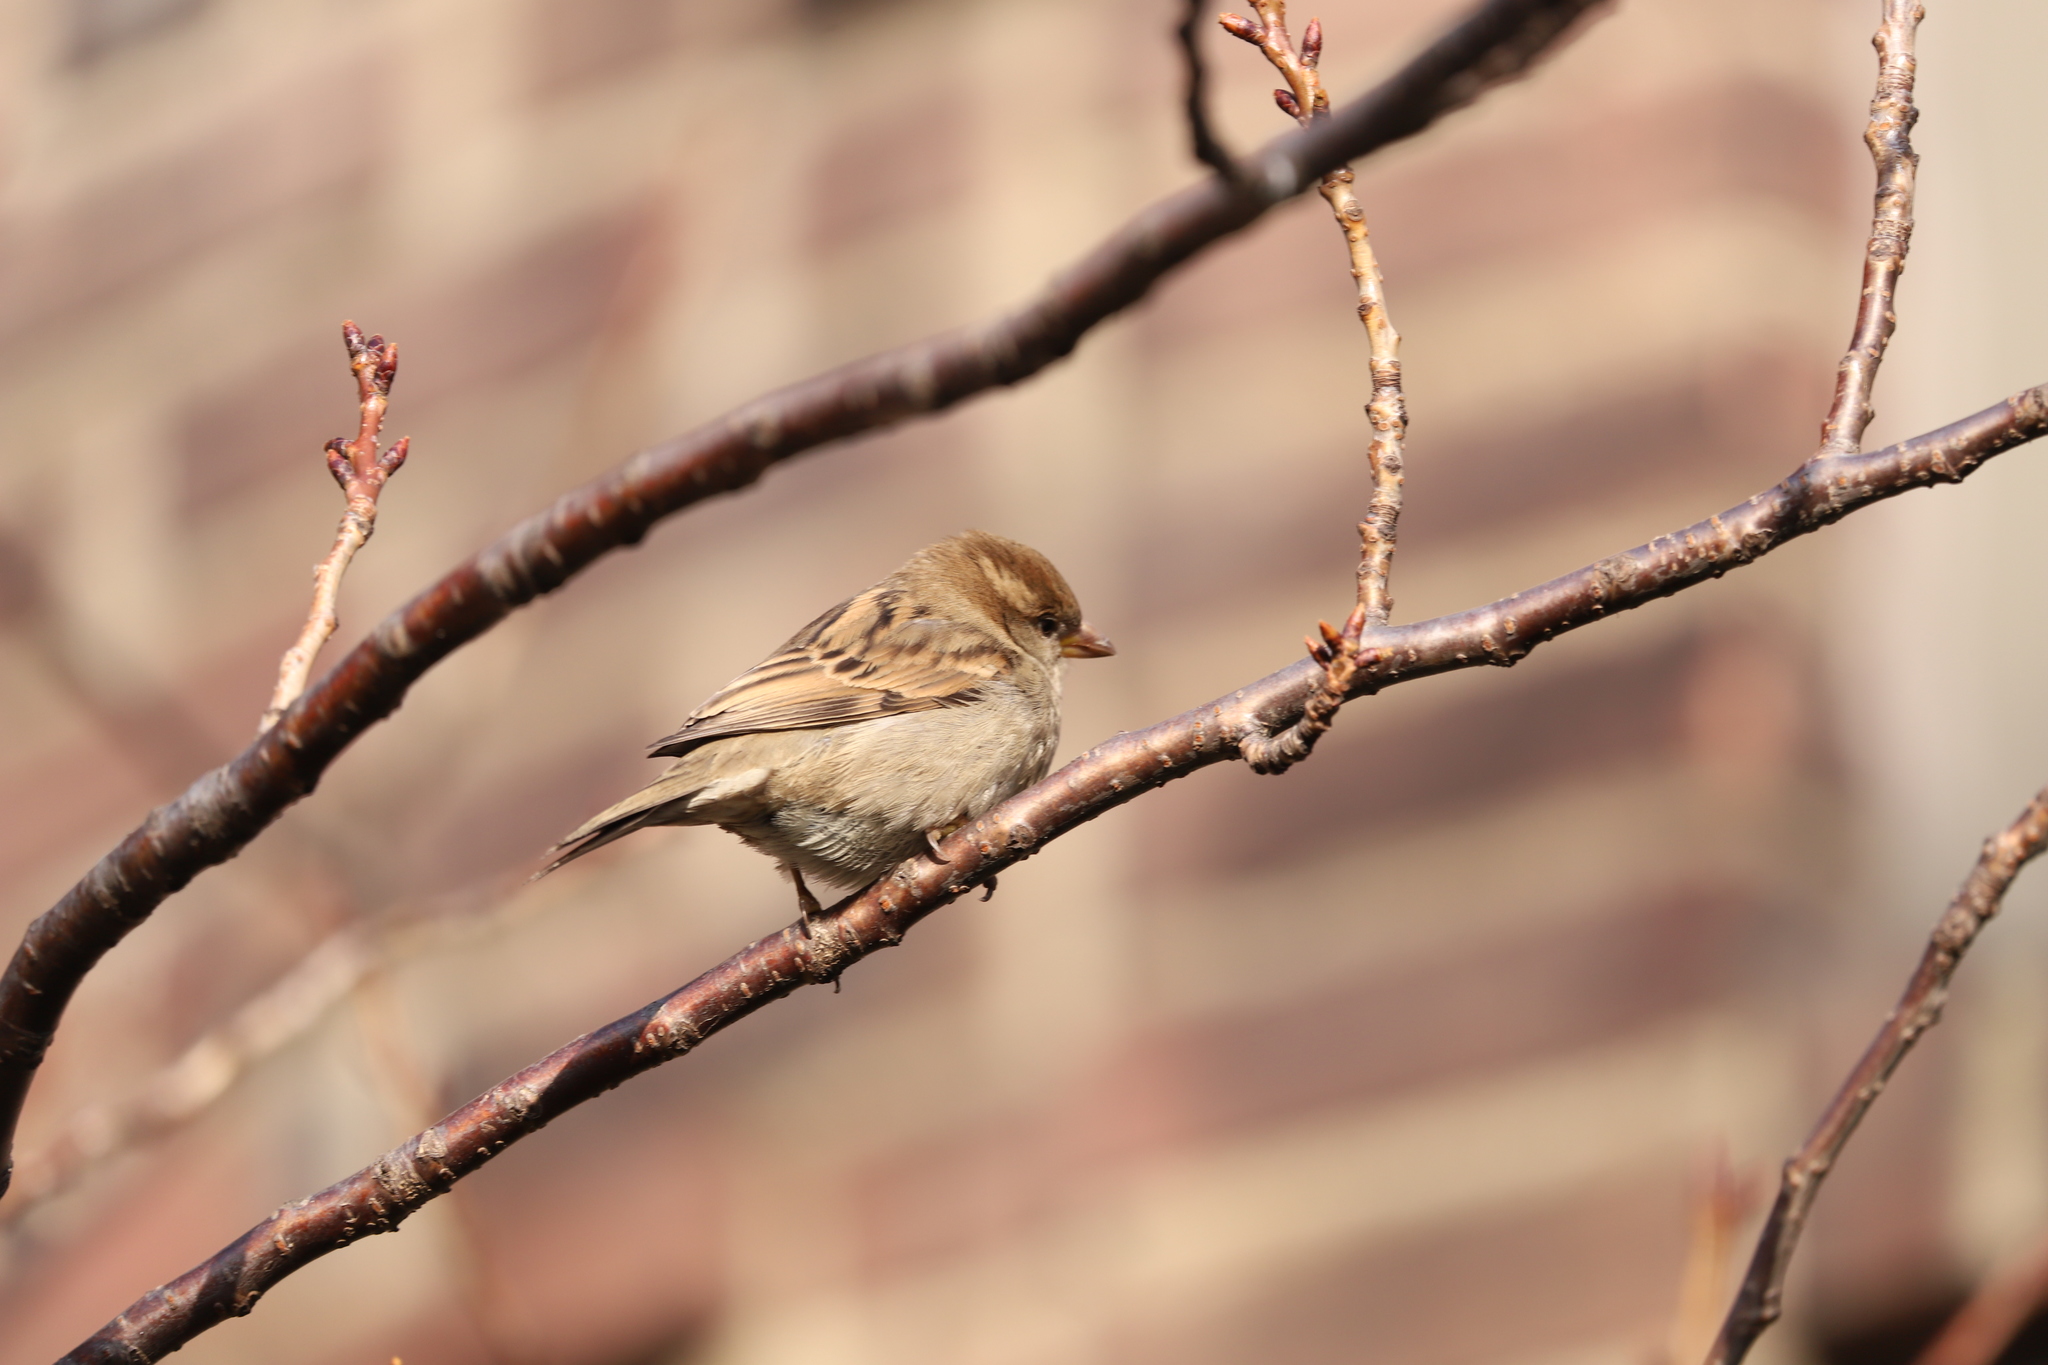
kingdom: Animalia
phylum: Chordata
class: Aves
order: Passeriformes
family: Passeridae
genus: Passer
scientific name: Passer domesticus
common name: House sparrow
